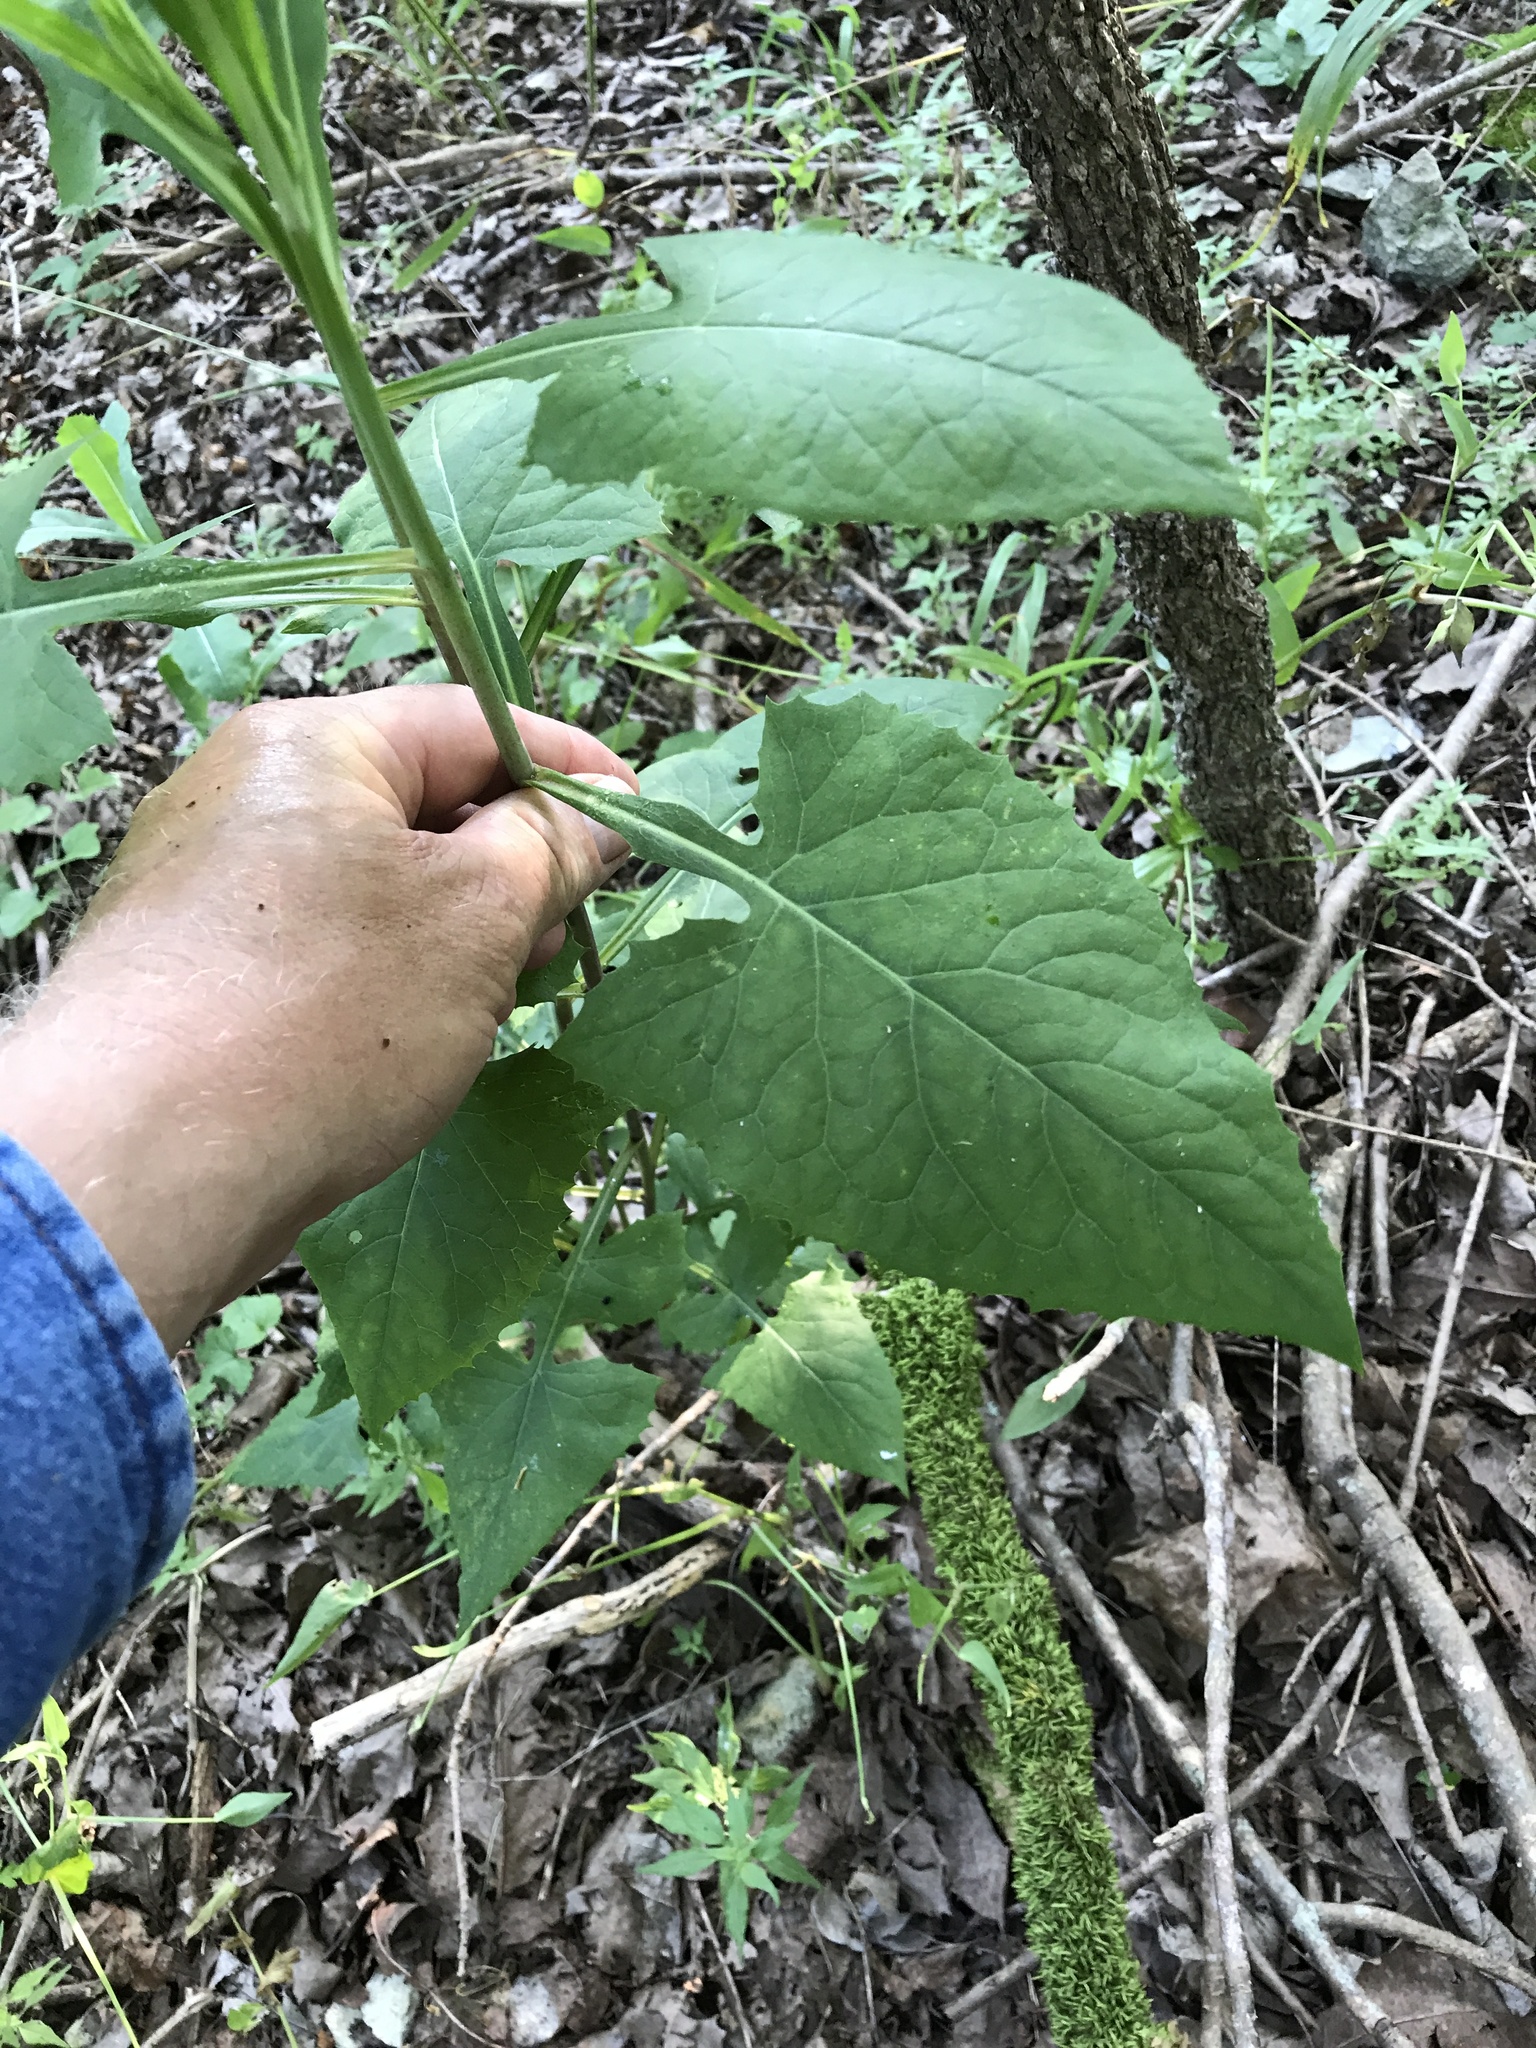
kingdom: Plantae
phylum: Tracheophyta
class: Magnoliopsida
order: Asterales
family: Asteraceae
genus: Lactuca
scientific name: Lactuca floridana
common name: Woodland lettuce
